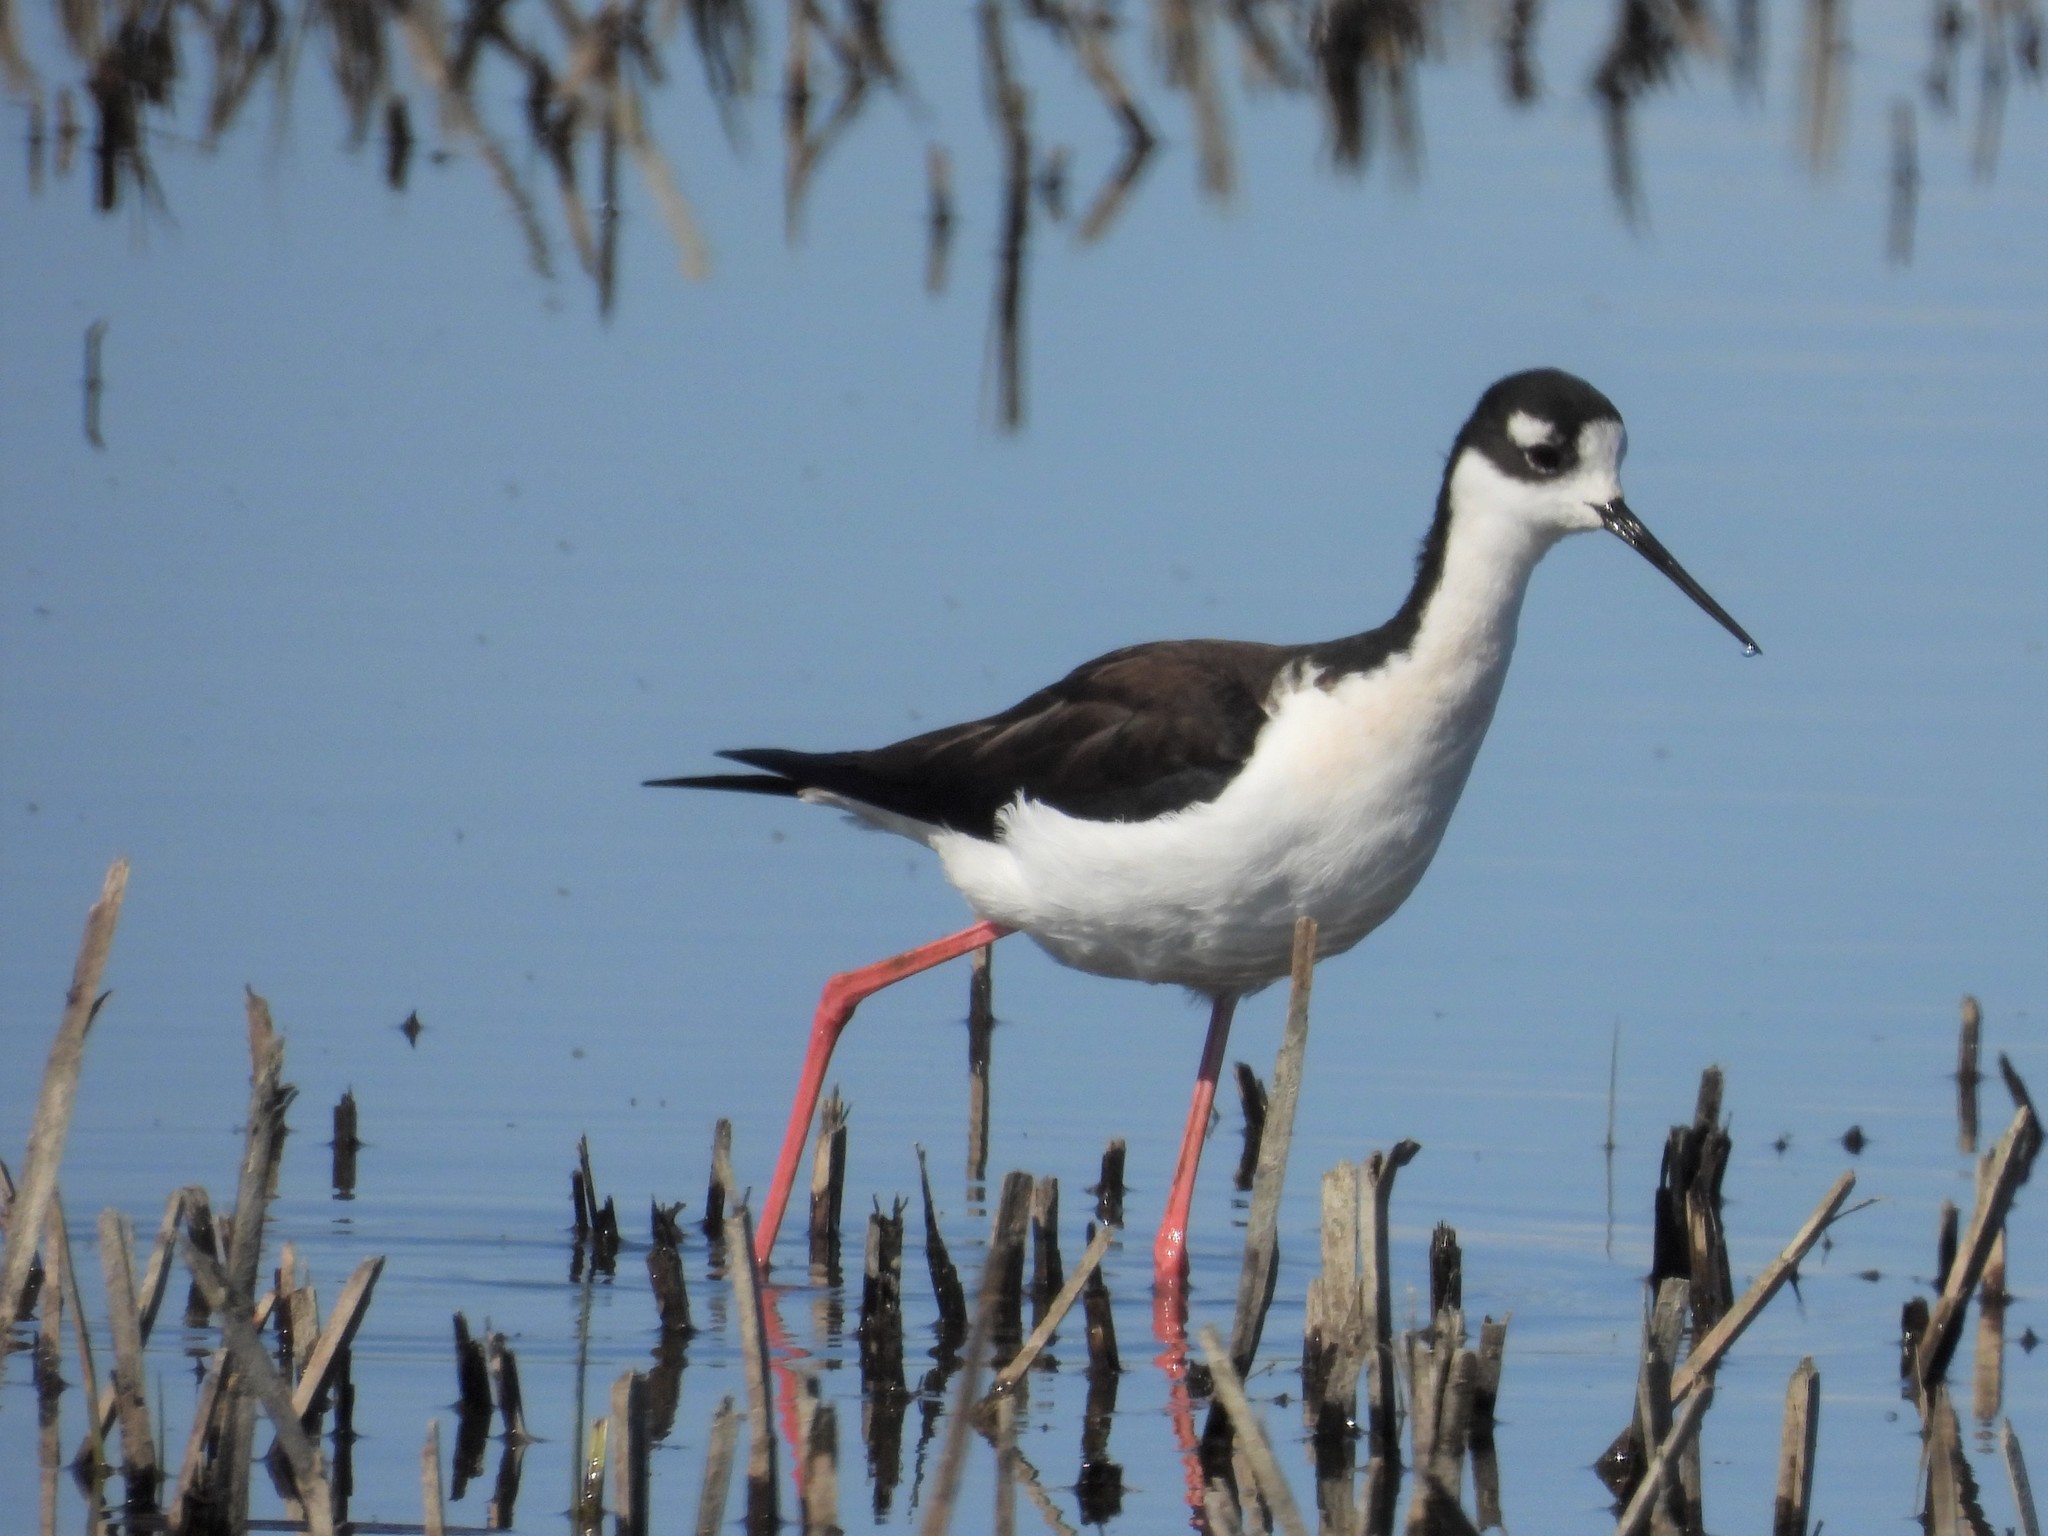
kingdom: Animalia
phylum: Chordata
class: Aves
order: Charadriiformes
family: Recurvirostridae
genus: Himantopus
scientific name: Himantopus mexicanus
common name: Black-necked stilt
